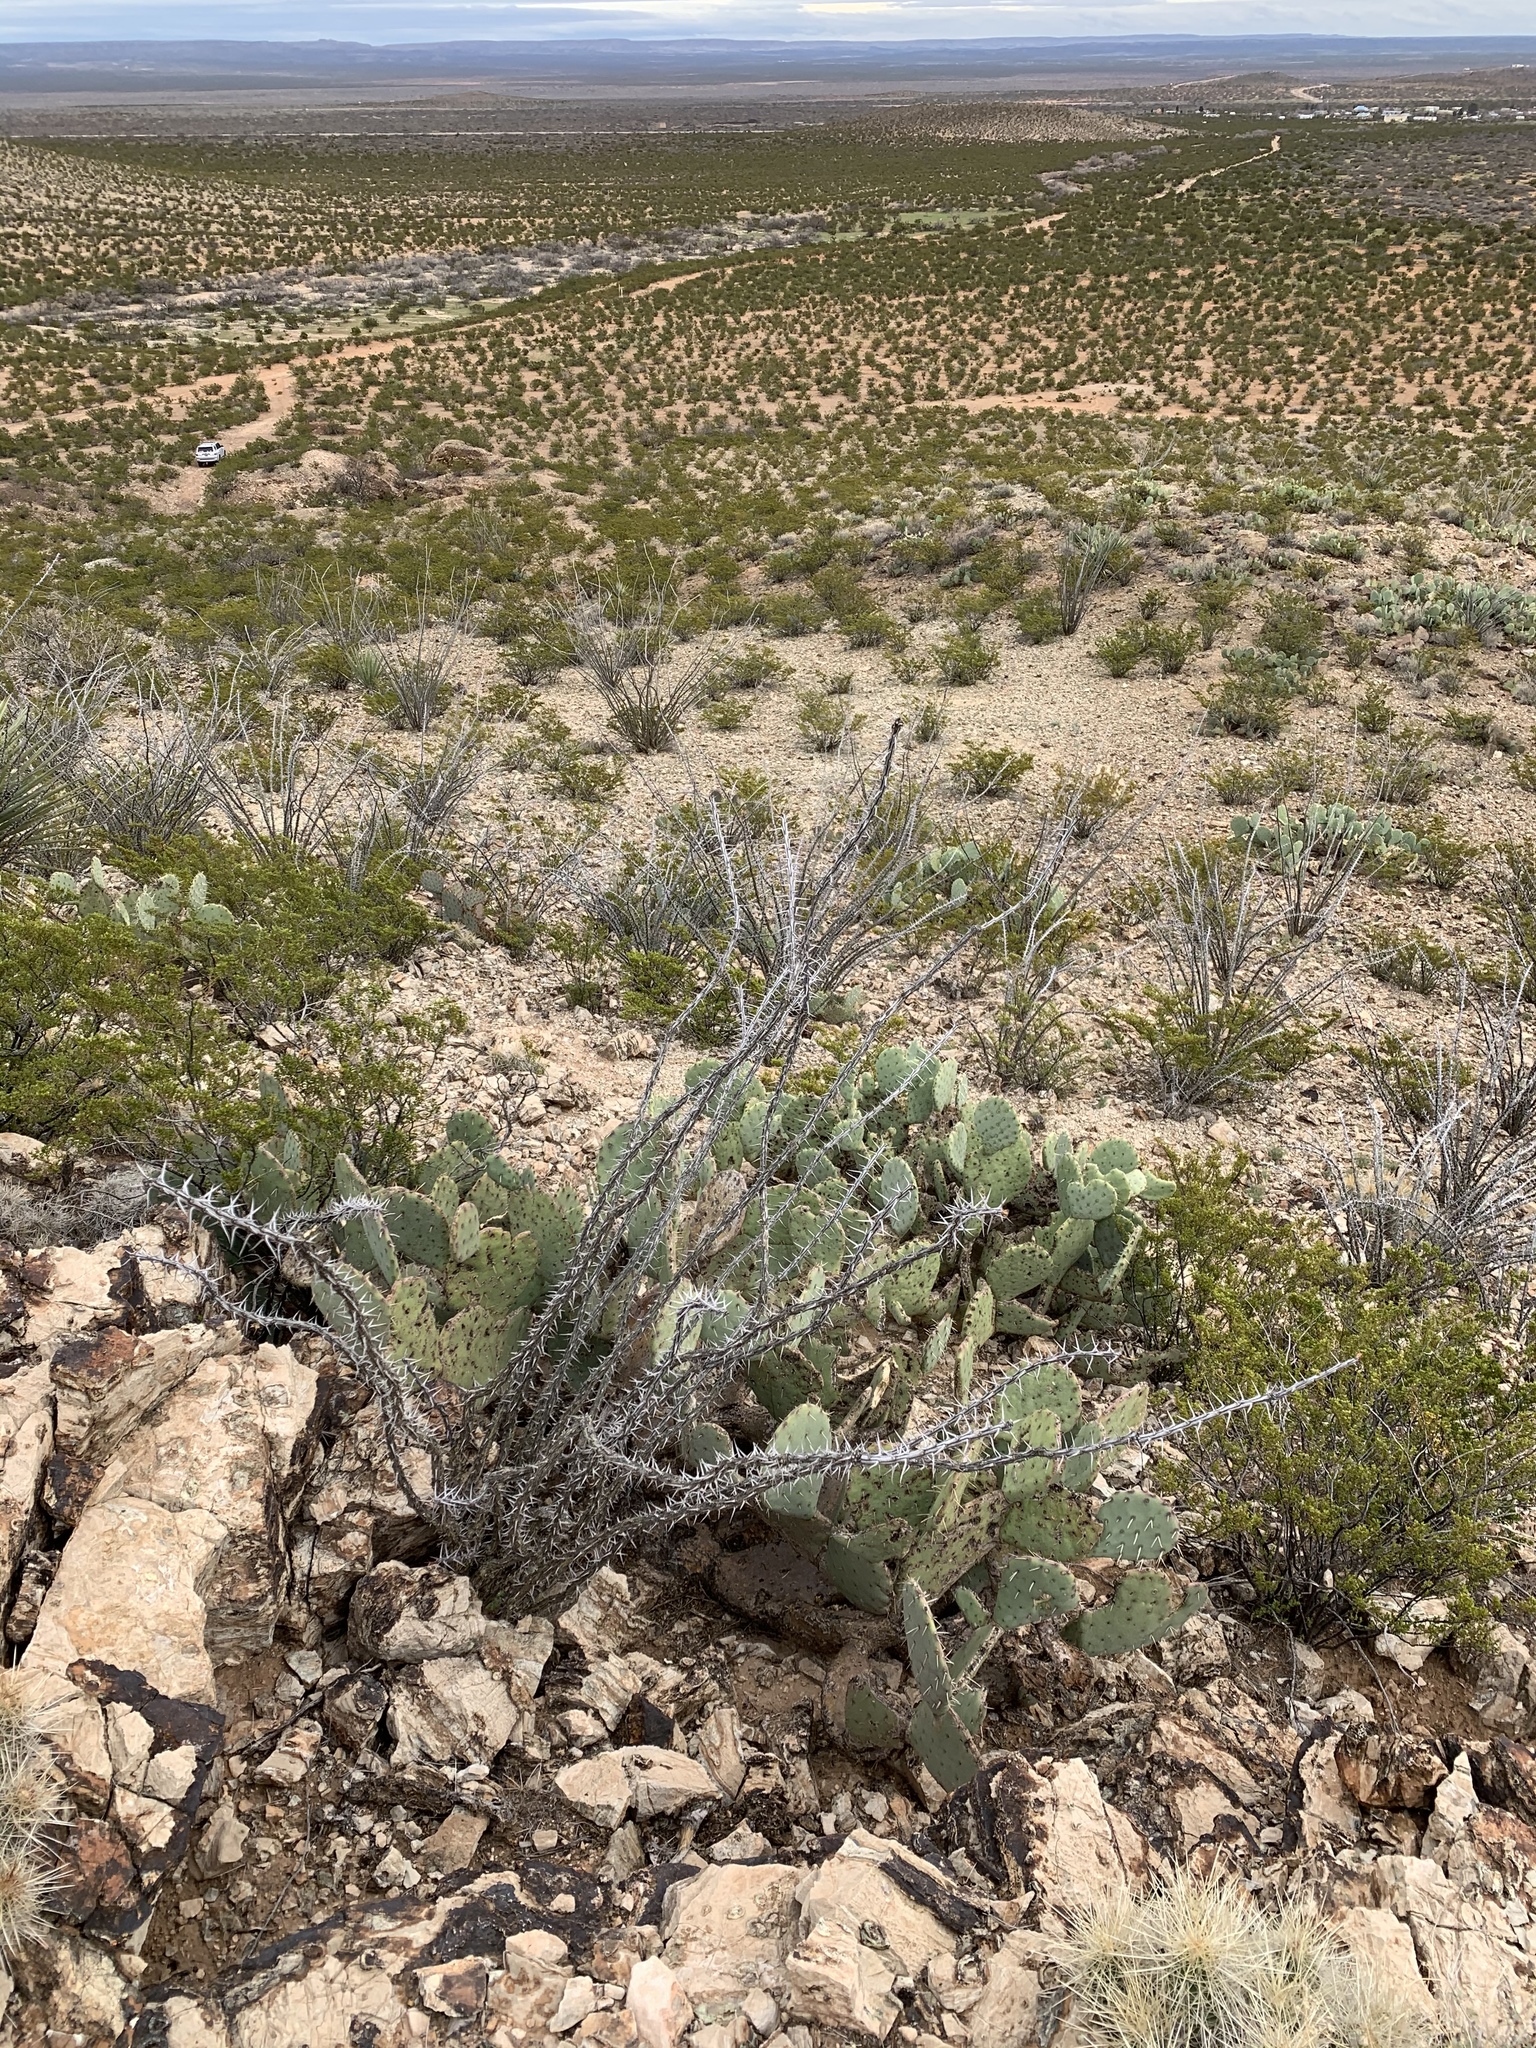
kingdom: Plantae
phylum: Tracheophyta
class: Magnoliopsida
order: Ericales
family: Fouquieriaceae
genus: Fouquieria
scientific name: Fouquieria splendens
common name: Vine-cactus
